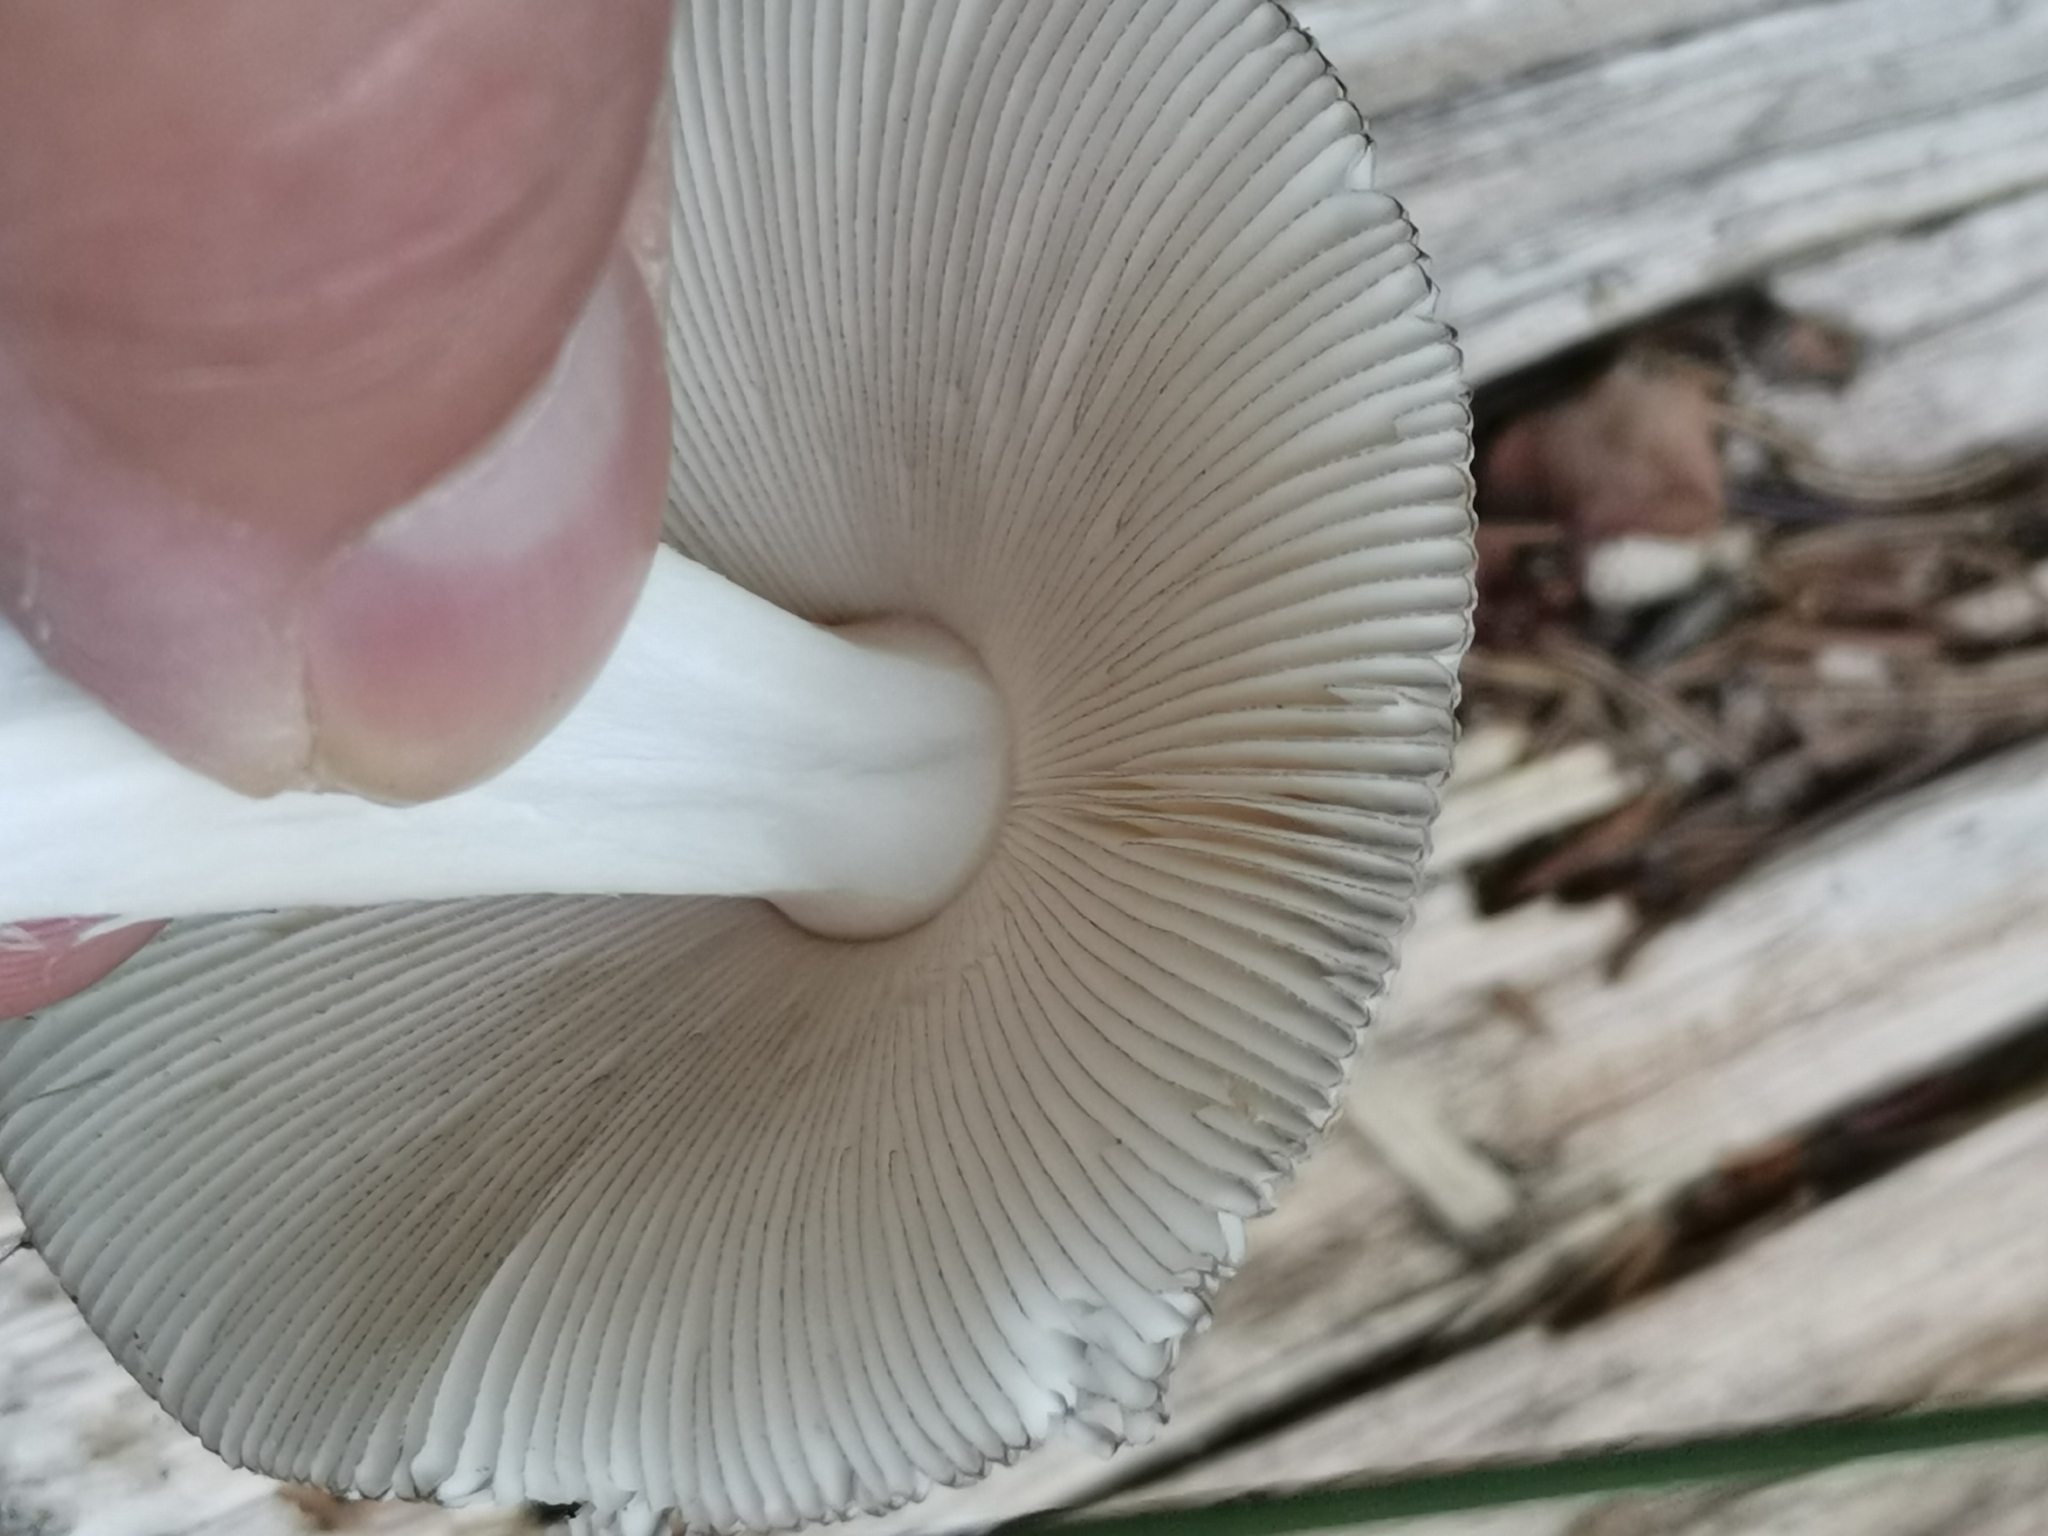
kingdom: Fungi
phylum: Basidiomycota
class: Agaricomycetes
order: Agaricales
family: Amanitaceae
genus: Amanita
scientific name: Amanita battarrae
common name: Banded amanita
